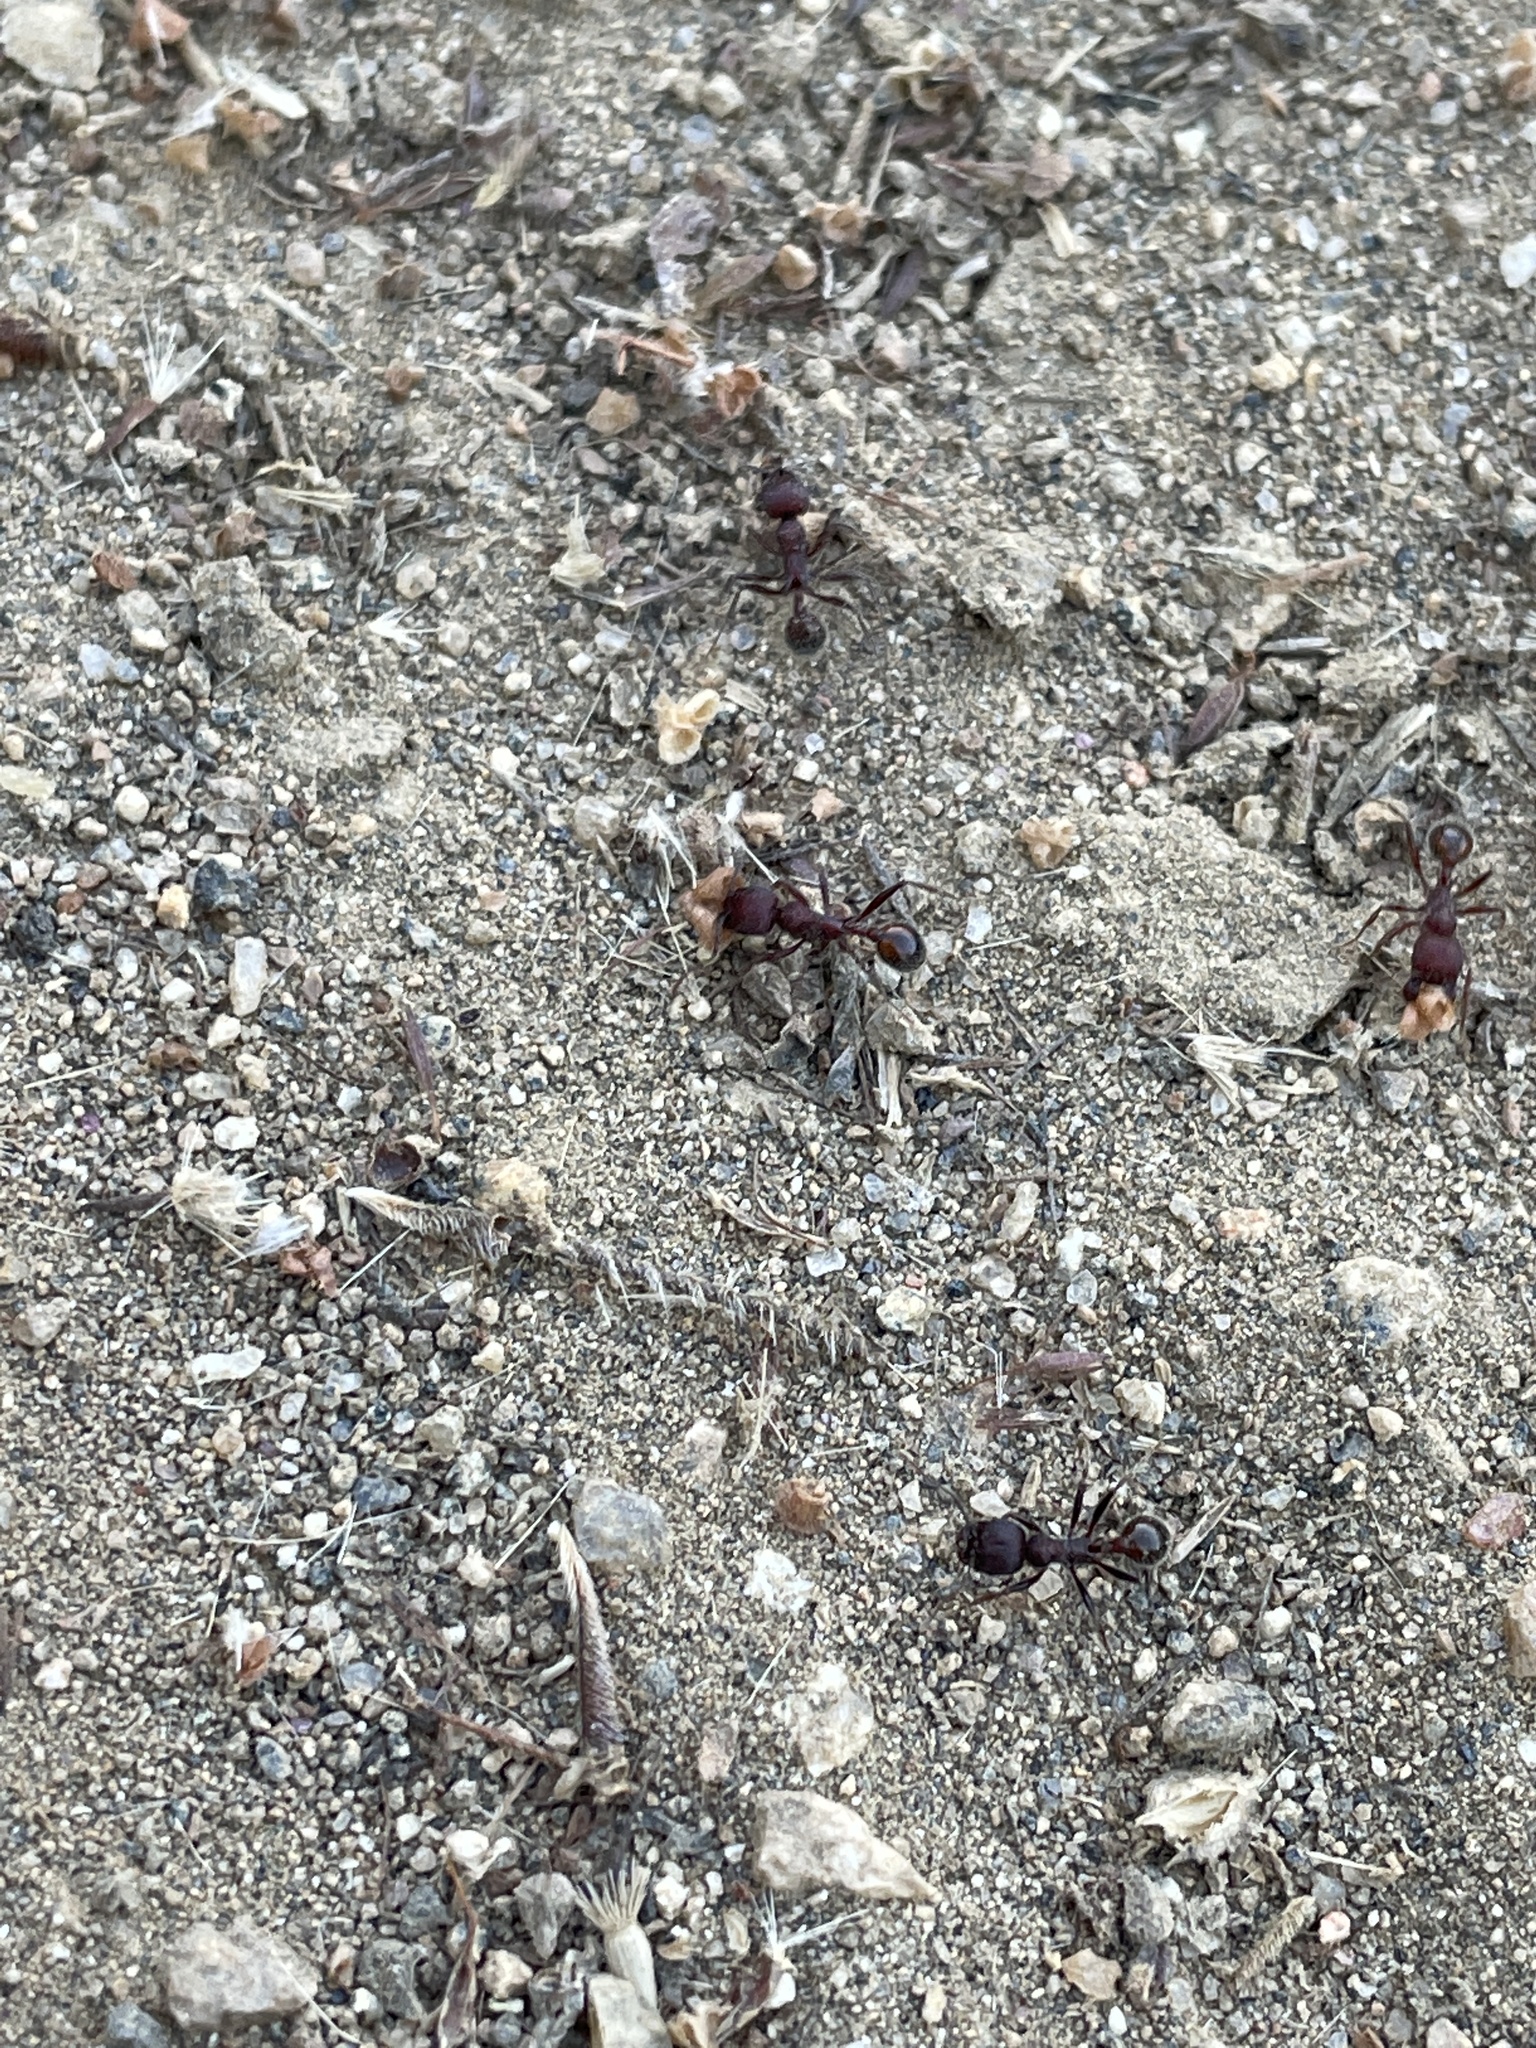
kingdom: Animalia
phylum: Arthropoda
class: Insecta
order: Hymenoptera
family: Formicidae
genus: Veromessor
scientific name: Veromessor andrei
